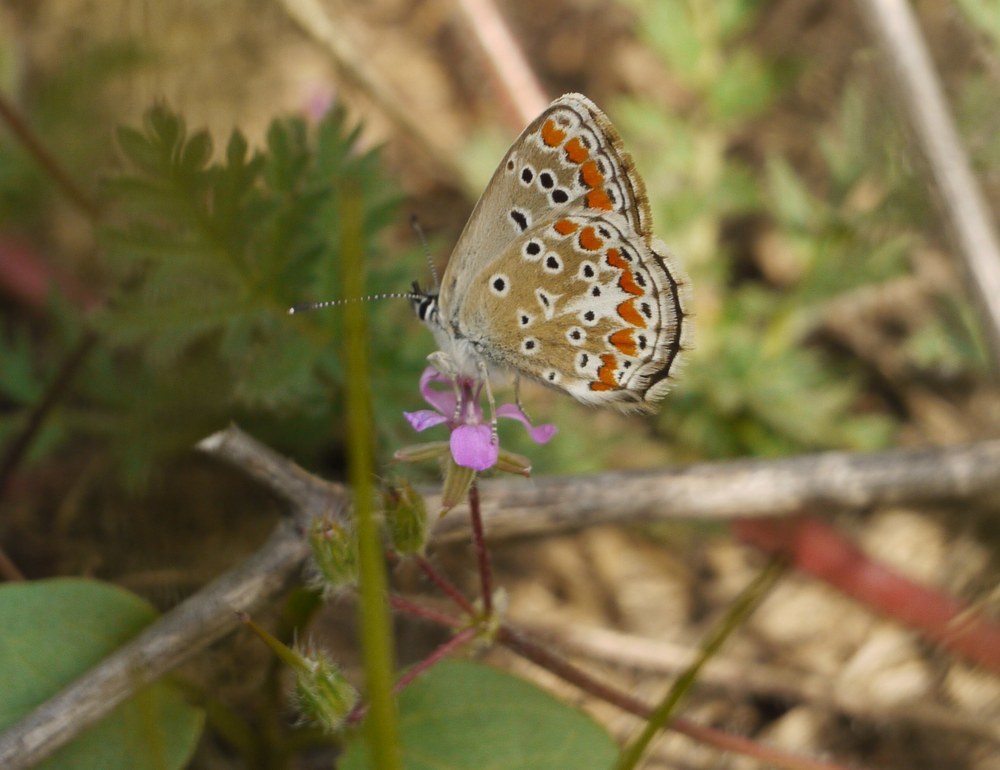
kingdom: Animalia
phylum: Arthropoda
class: Insecta
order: Lepidoptera
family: Lycaenidae
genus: Aricia
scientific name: Aricia agestis
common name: Brown argus
